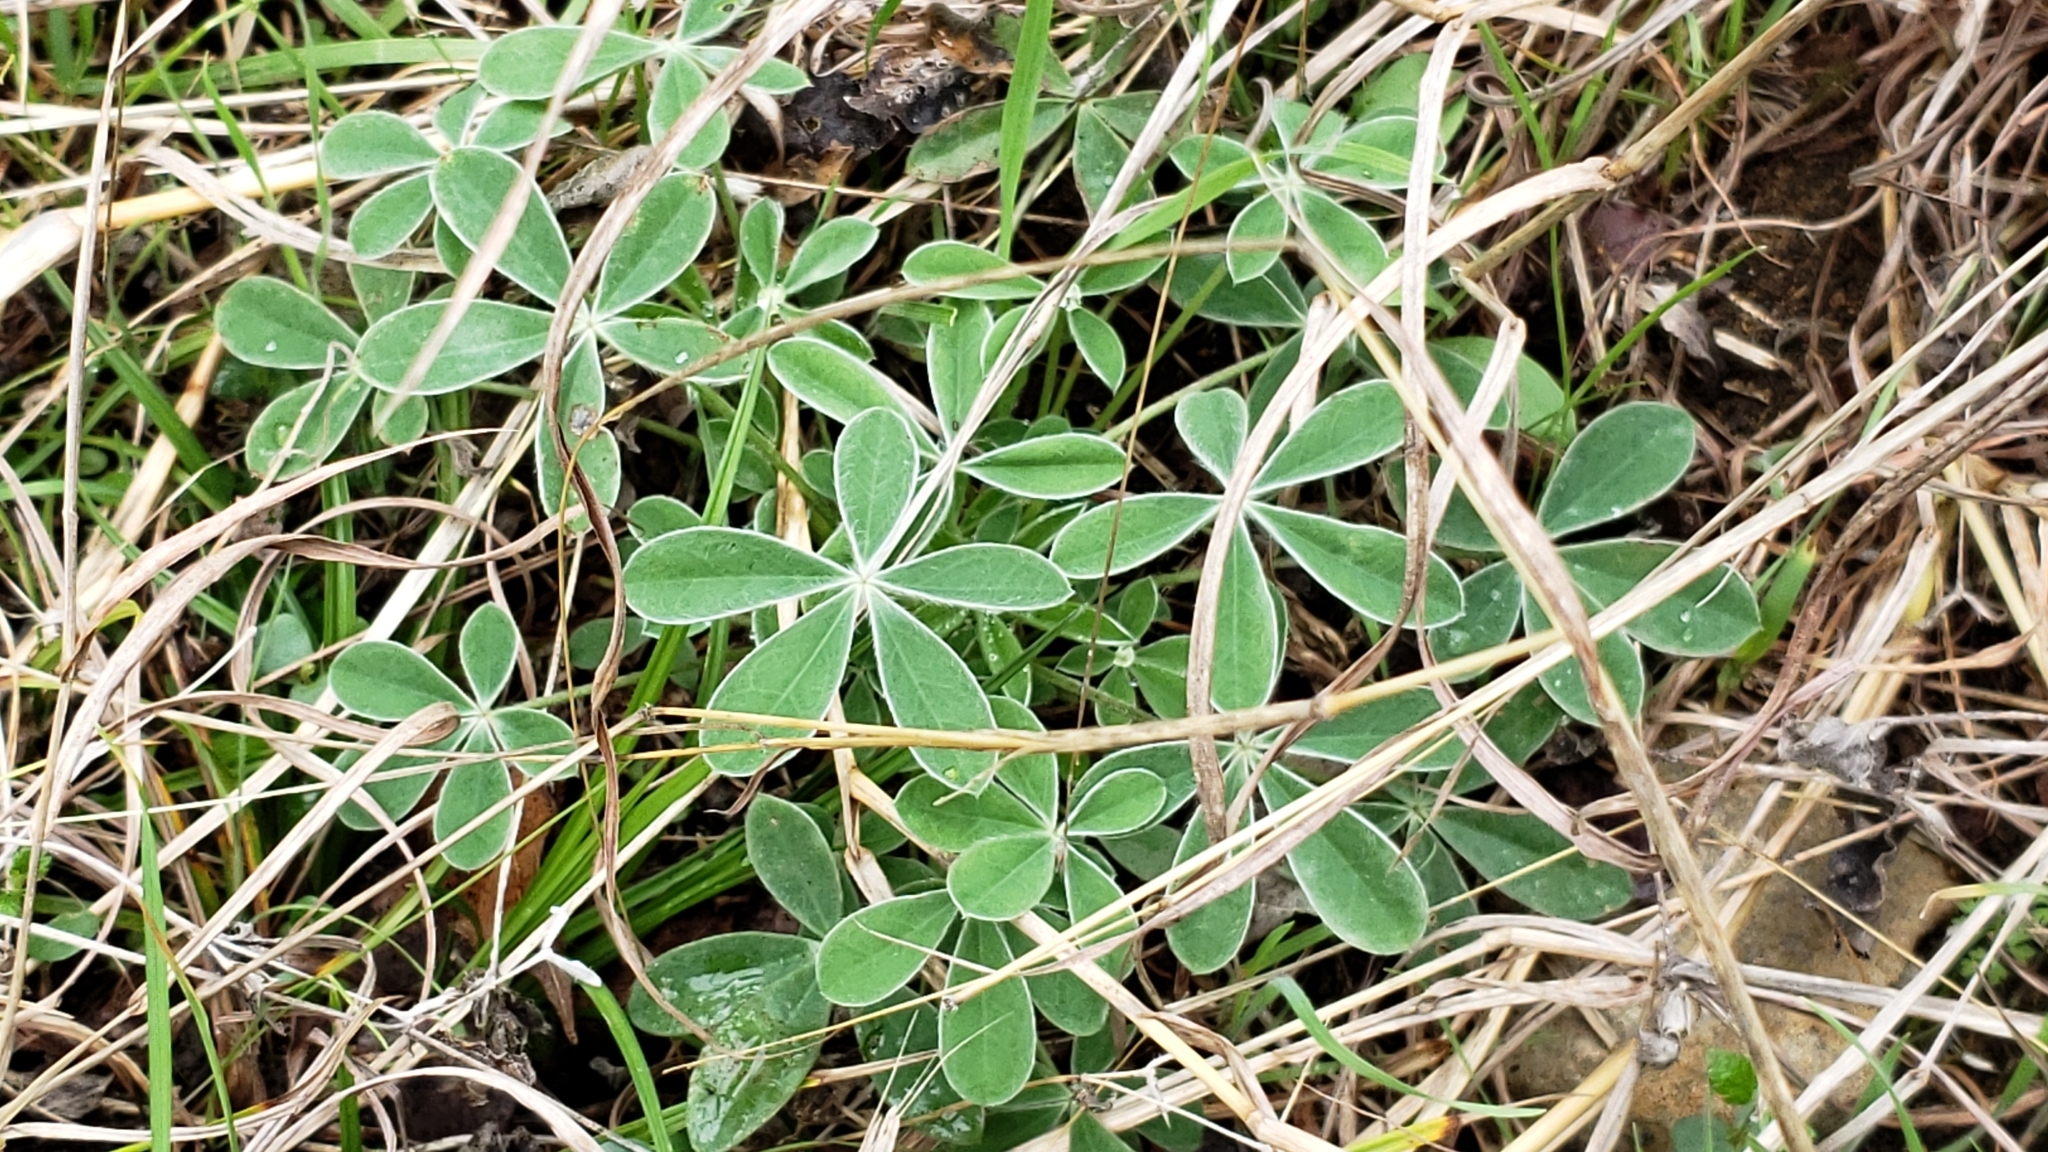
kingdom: Plantae
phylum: Tracheophyta
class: Magnoliopsida
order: Fabales
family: Fabaceae
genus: Lupinus
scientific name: Lupinus texensis
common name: Texas bluebonnet
